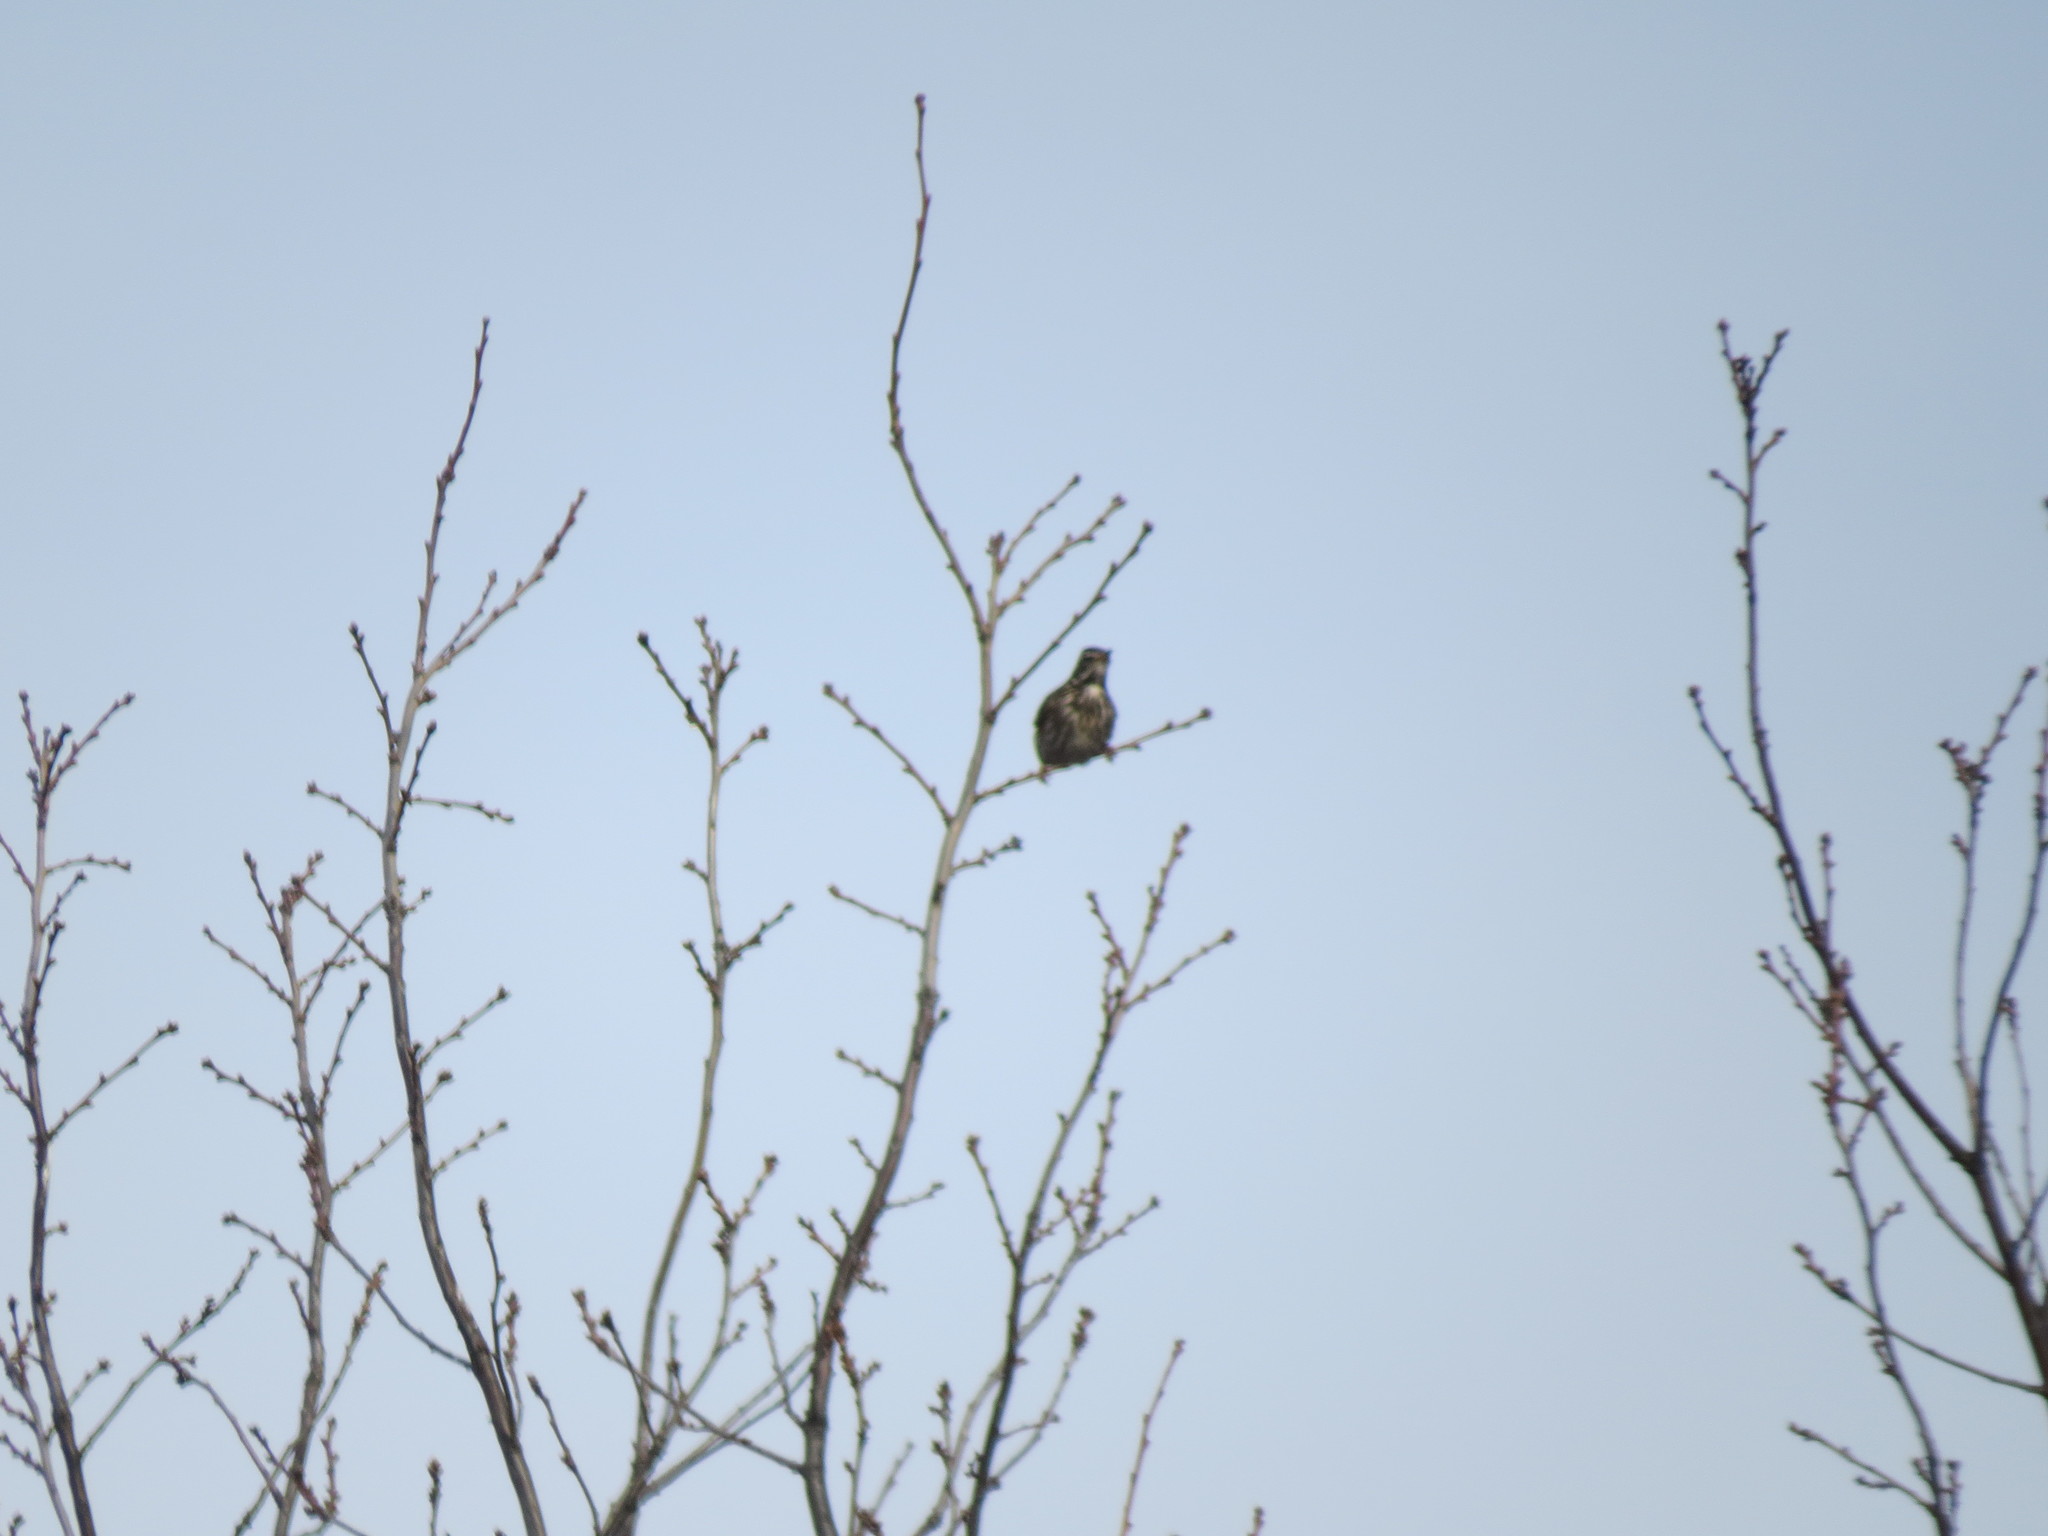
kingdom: Animalia
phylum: Chordata
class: Aves
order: Passeriformes
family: Turdidae
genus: Turdus
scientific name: Turdus iliacus
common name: Redwing
